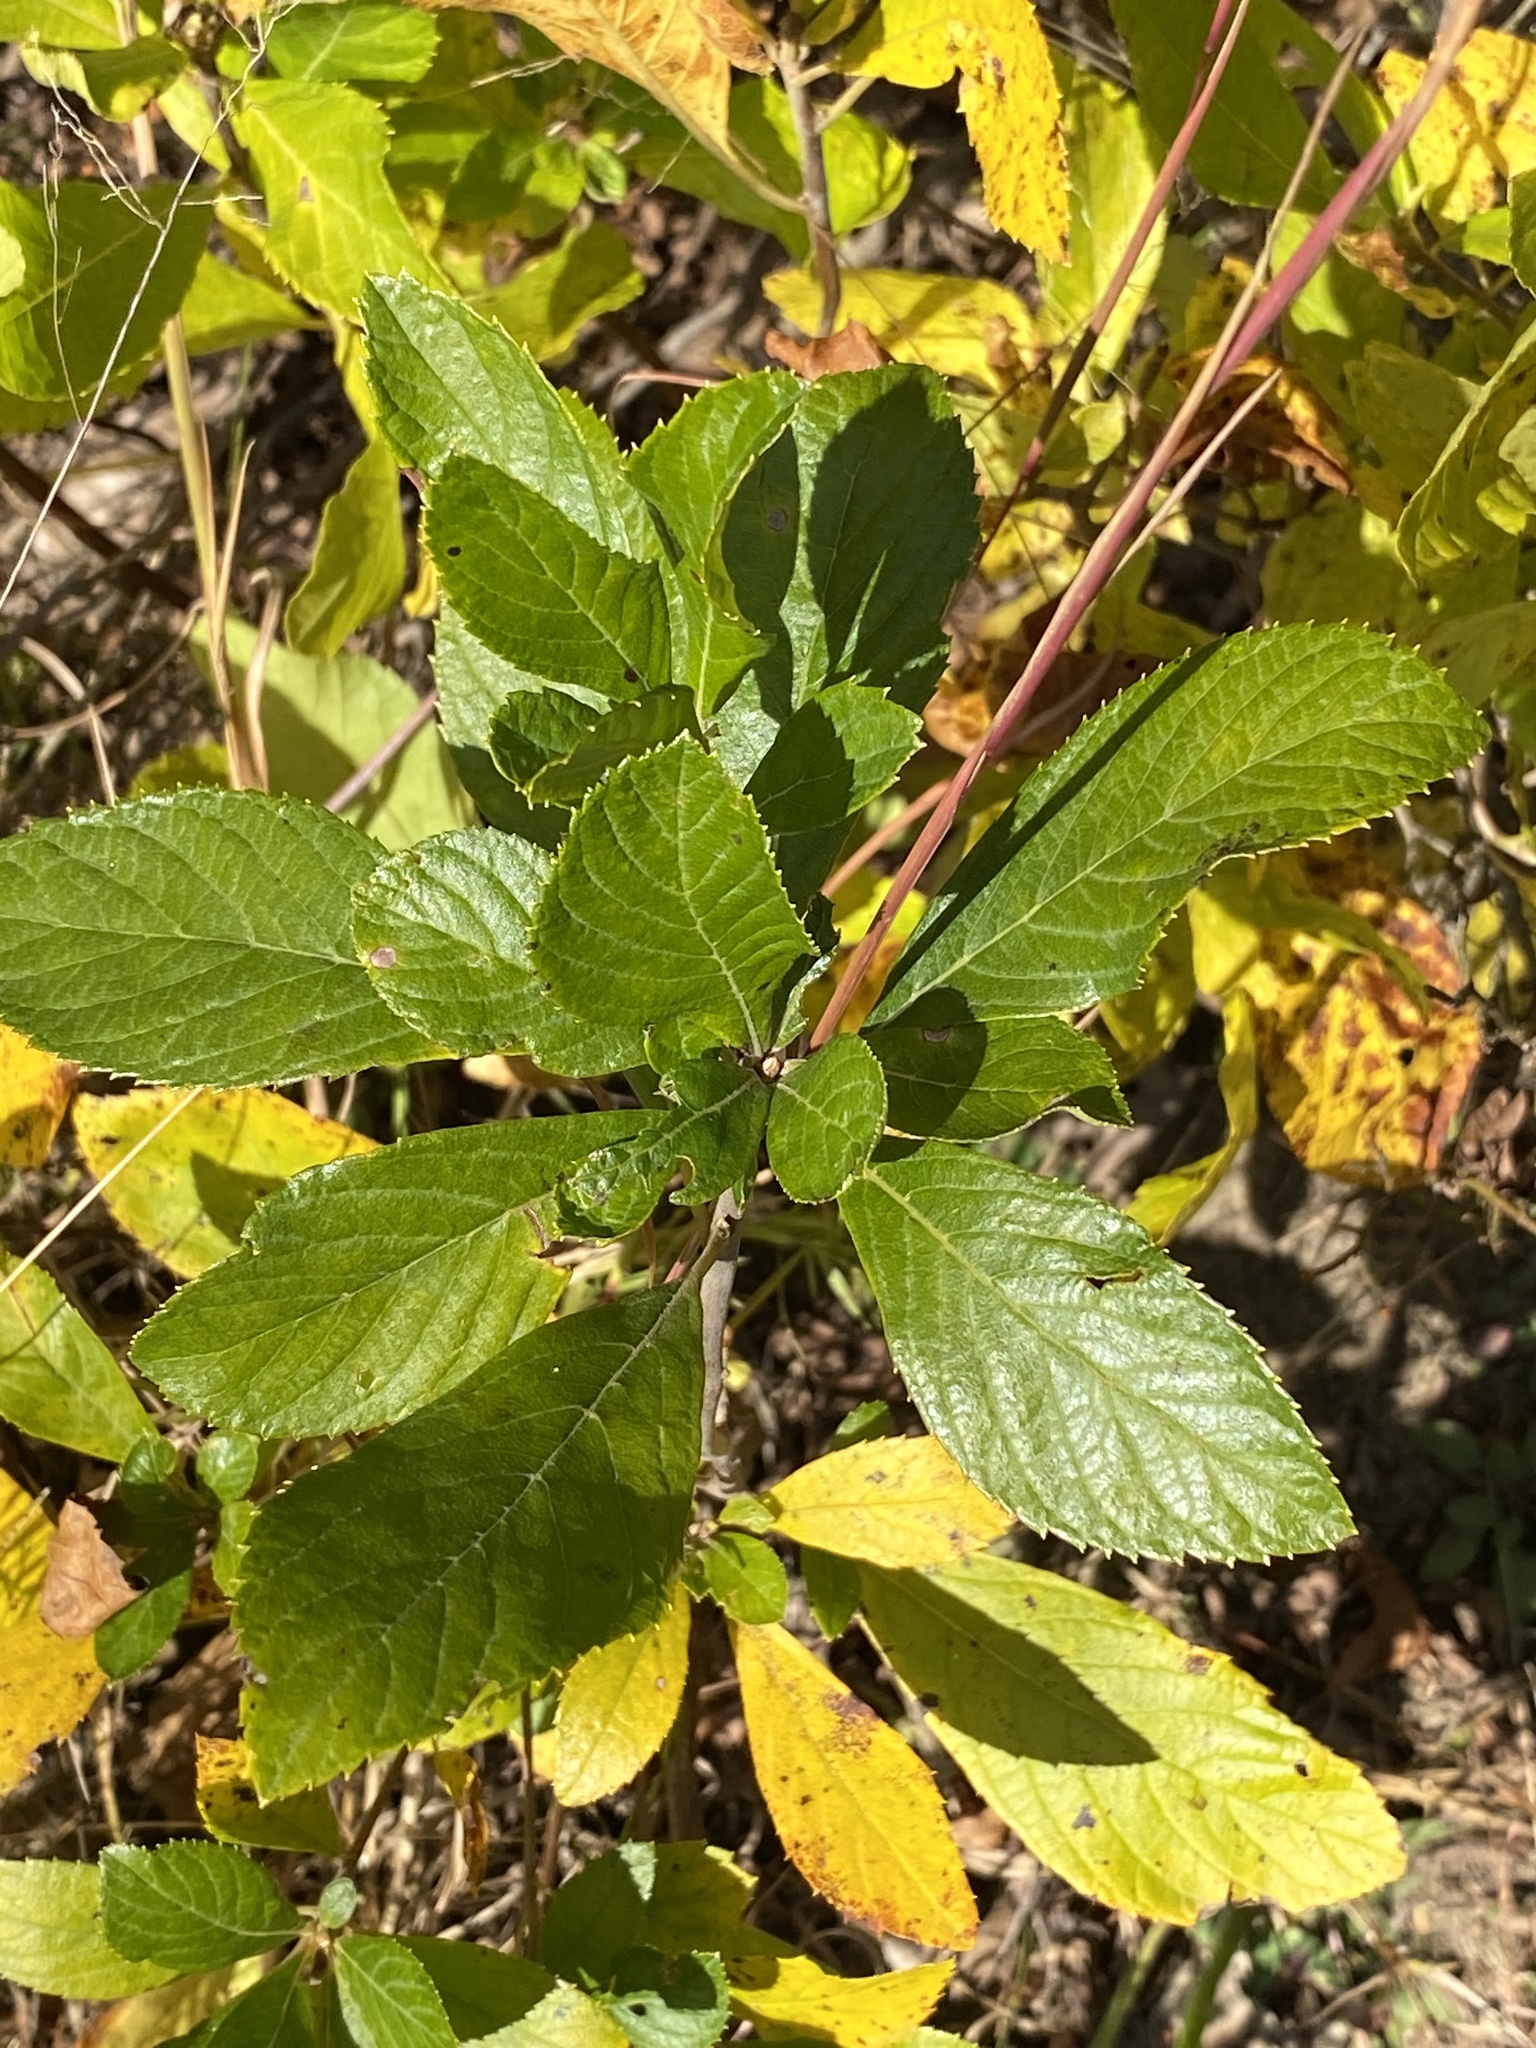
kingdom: Plantae
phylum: Tracheophyta
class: Magnoliopsida
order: Ericales
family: Clethraceae
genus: Clethra
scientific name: Clethra alnifolia
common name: Sweet pepperbush
